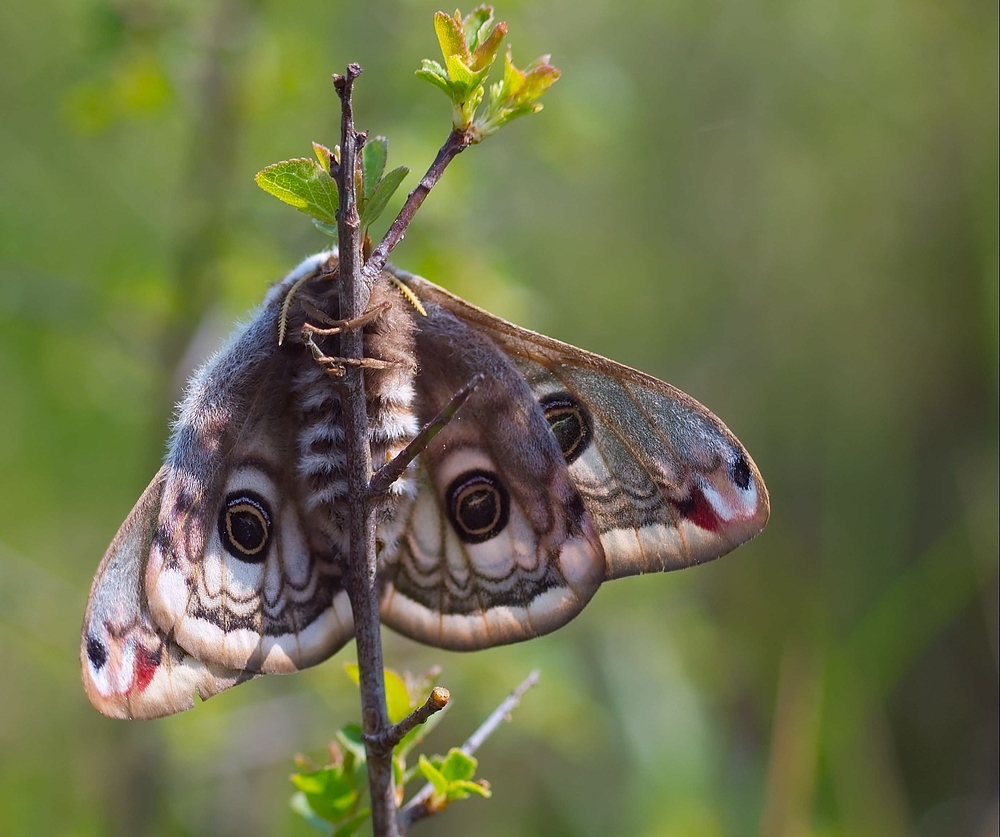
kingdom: Animalia
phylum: Arthropoda
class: Insecta
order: Lepidoptera
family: Saturniidae
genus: Saturnia
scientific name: Saturnia pavonia
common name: Emperor moth
